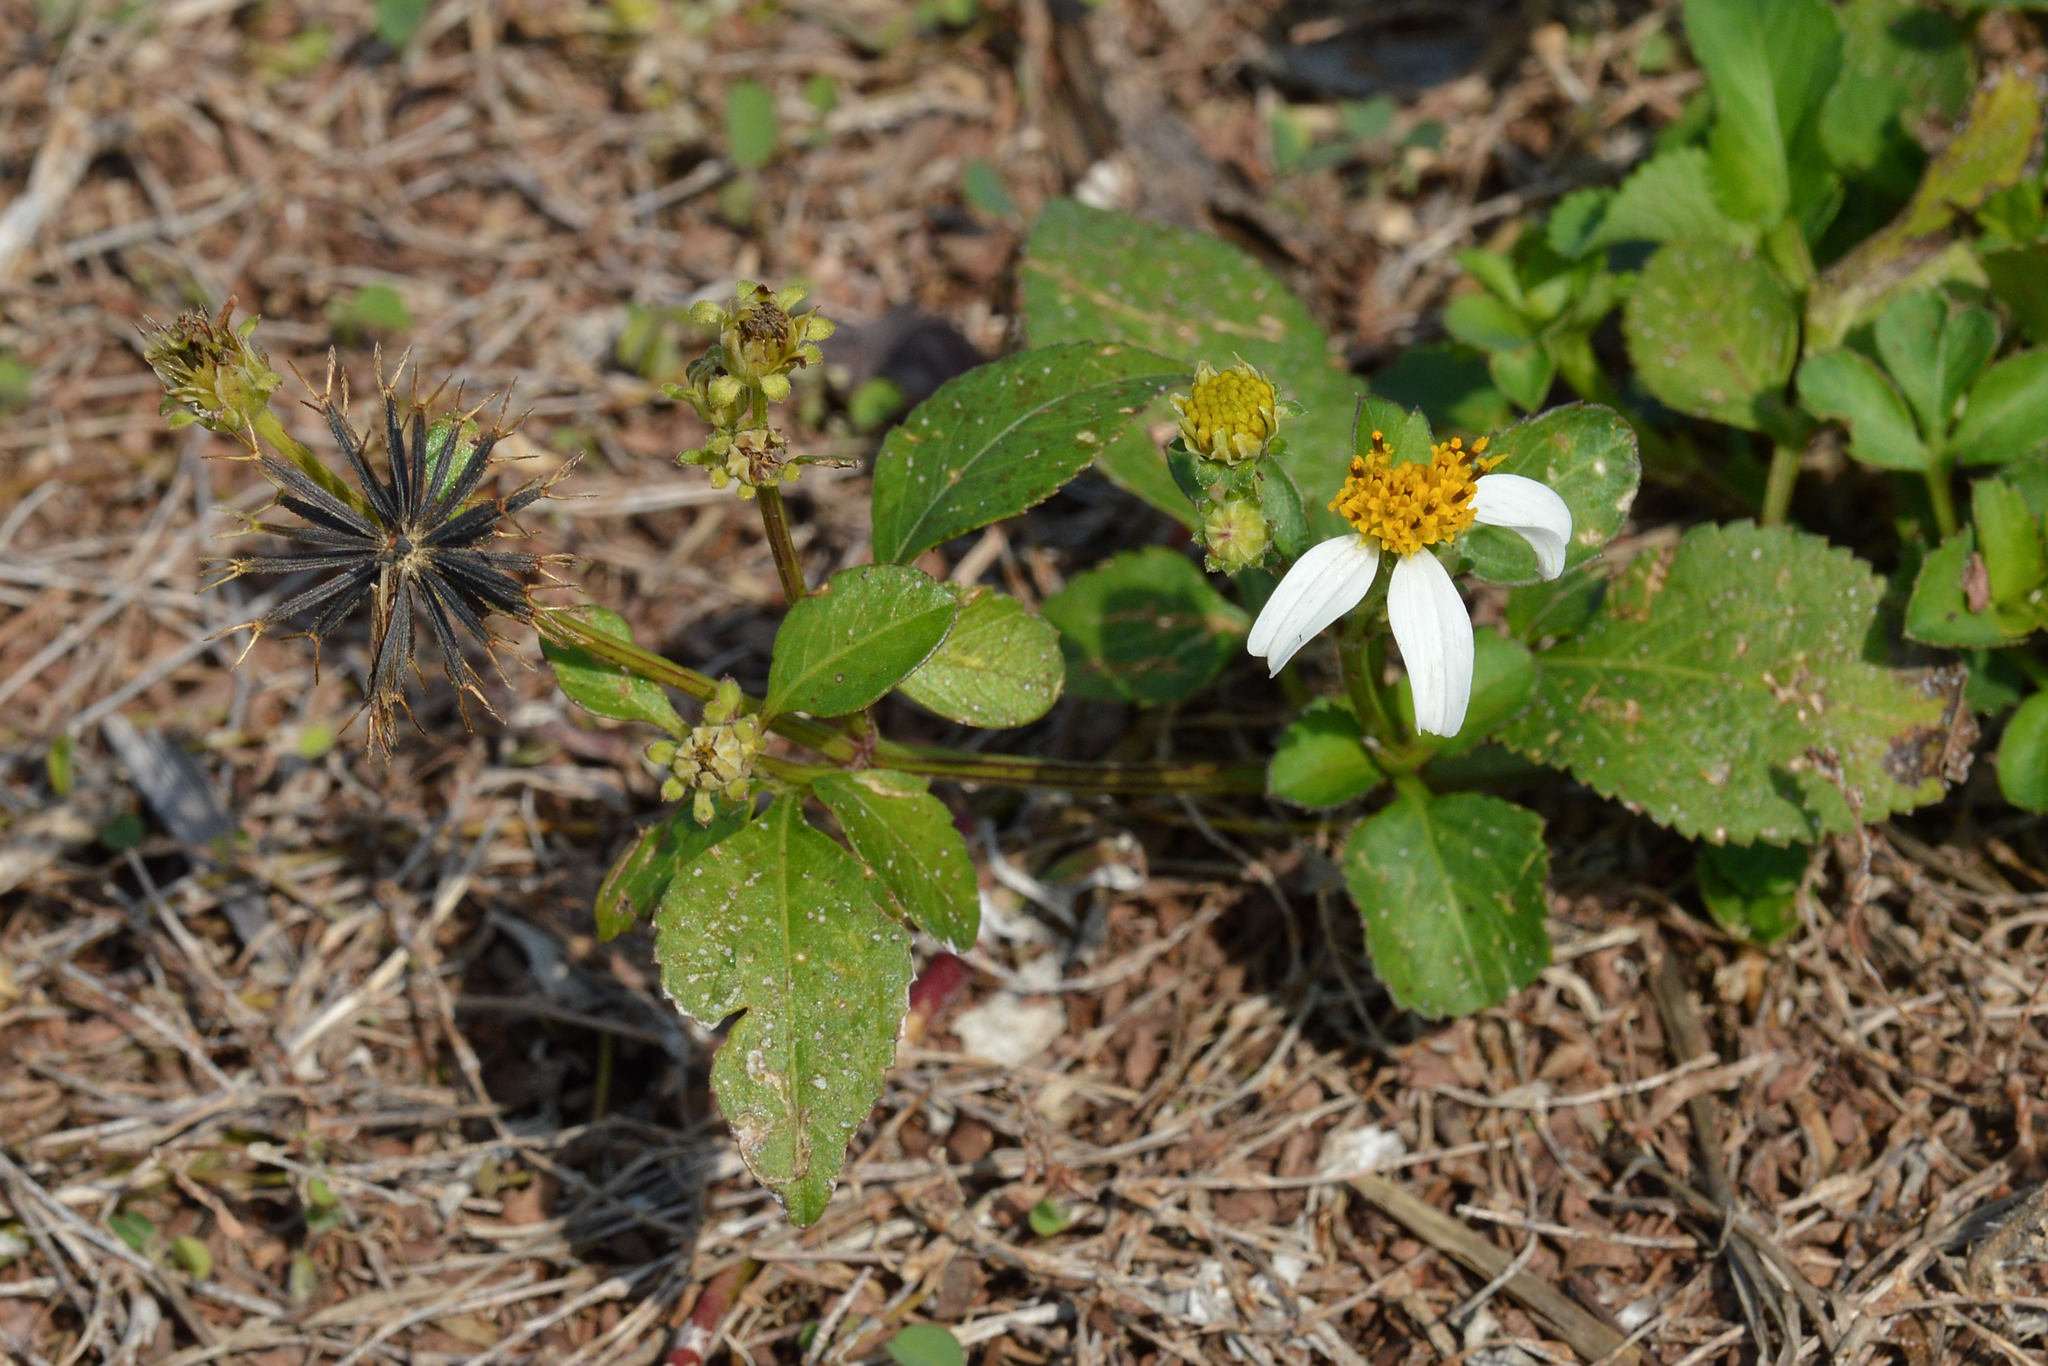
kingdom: Plantae
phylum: Tracheophyta
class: Magnoliopsida
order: Asterales
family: Asteraceae
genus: Bidens
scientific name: Bidens alba
